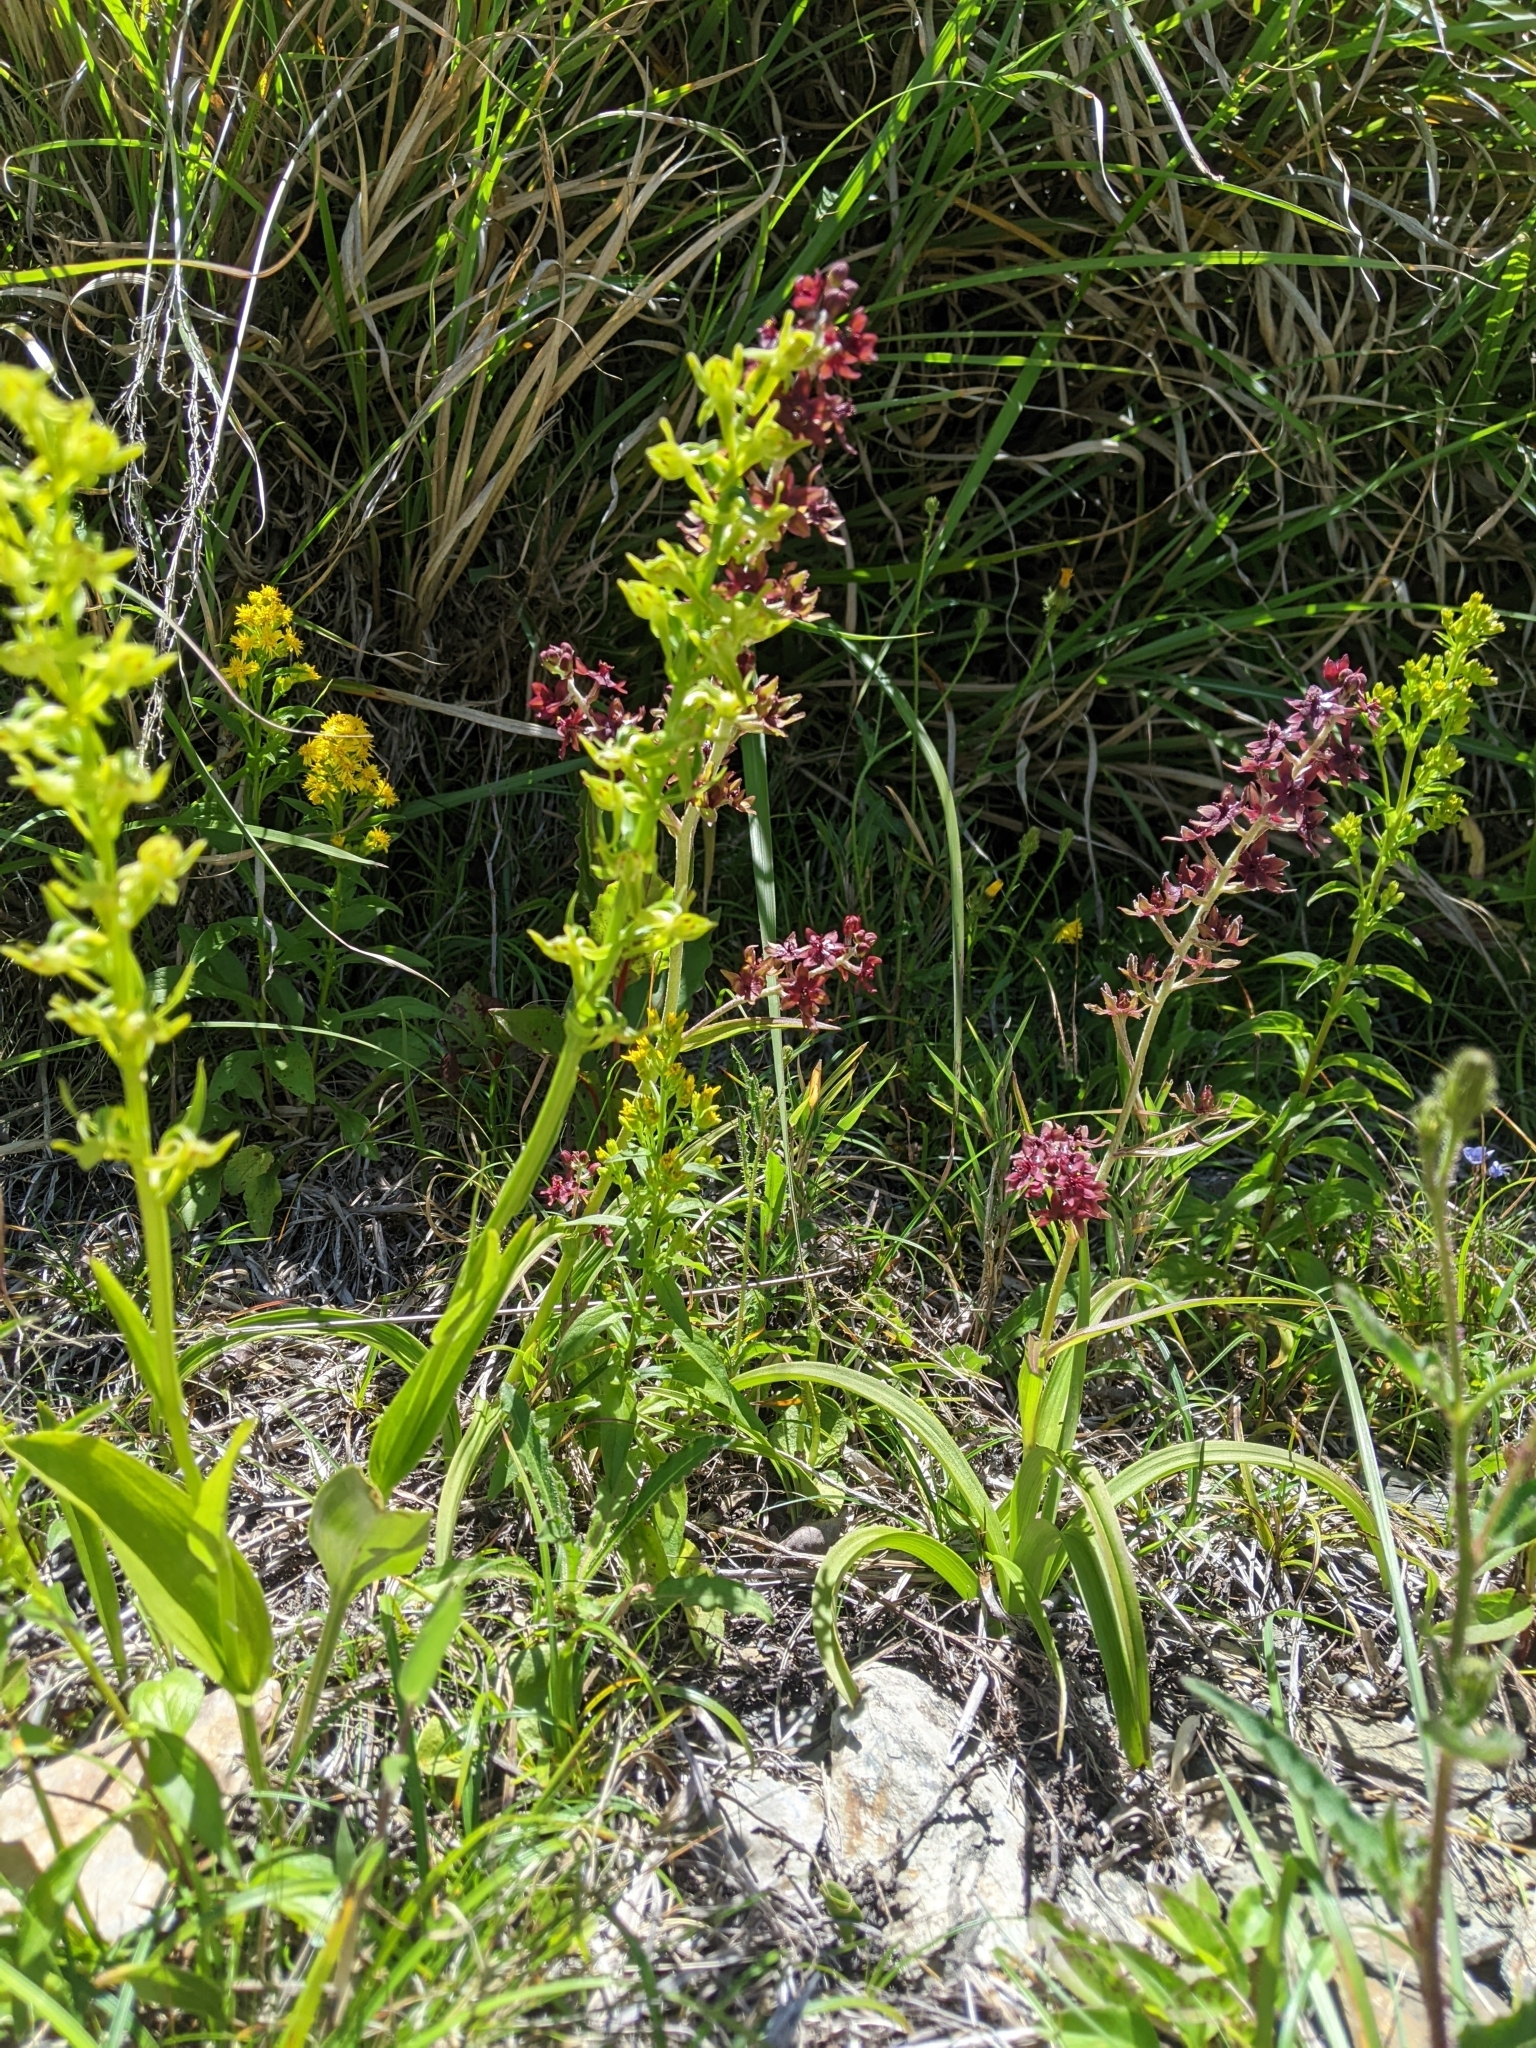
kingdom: Plantae
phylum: Tracheophyta
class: Liliopsida
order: Asparagales
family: Orchidaceae
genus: Platanthera
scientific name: Platanthera mandarinorum
